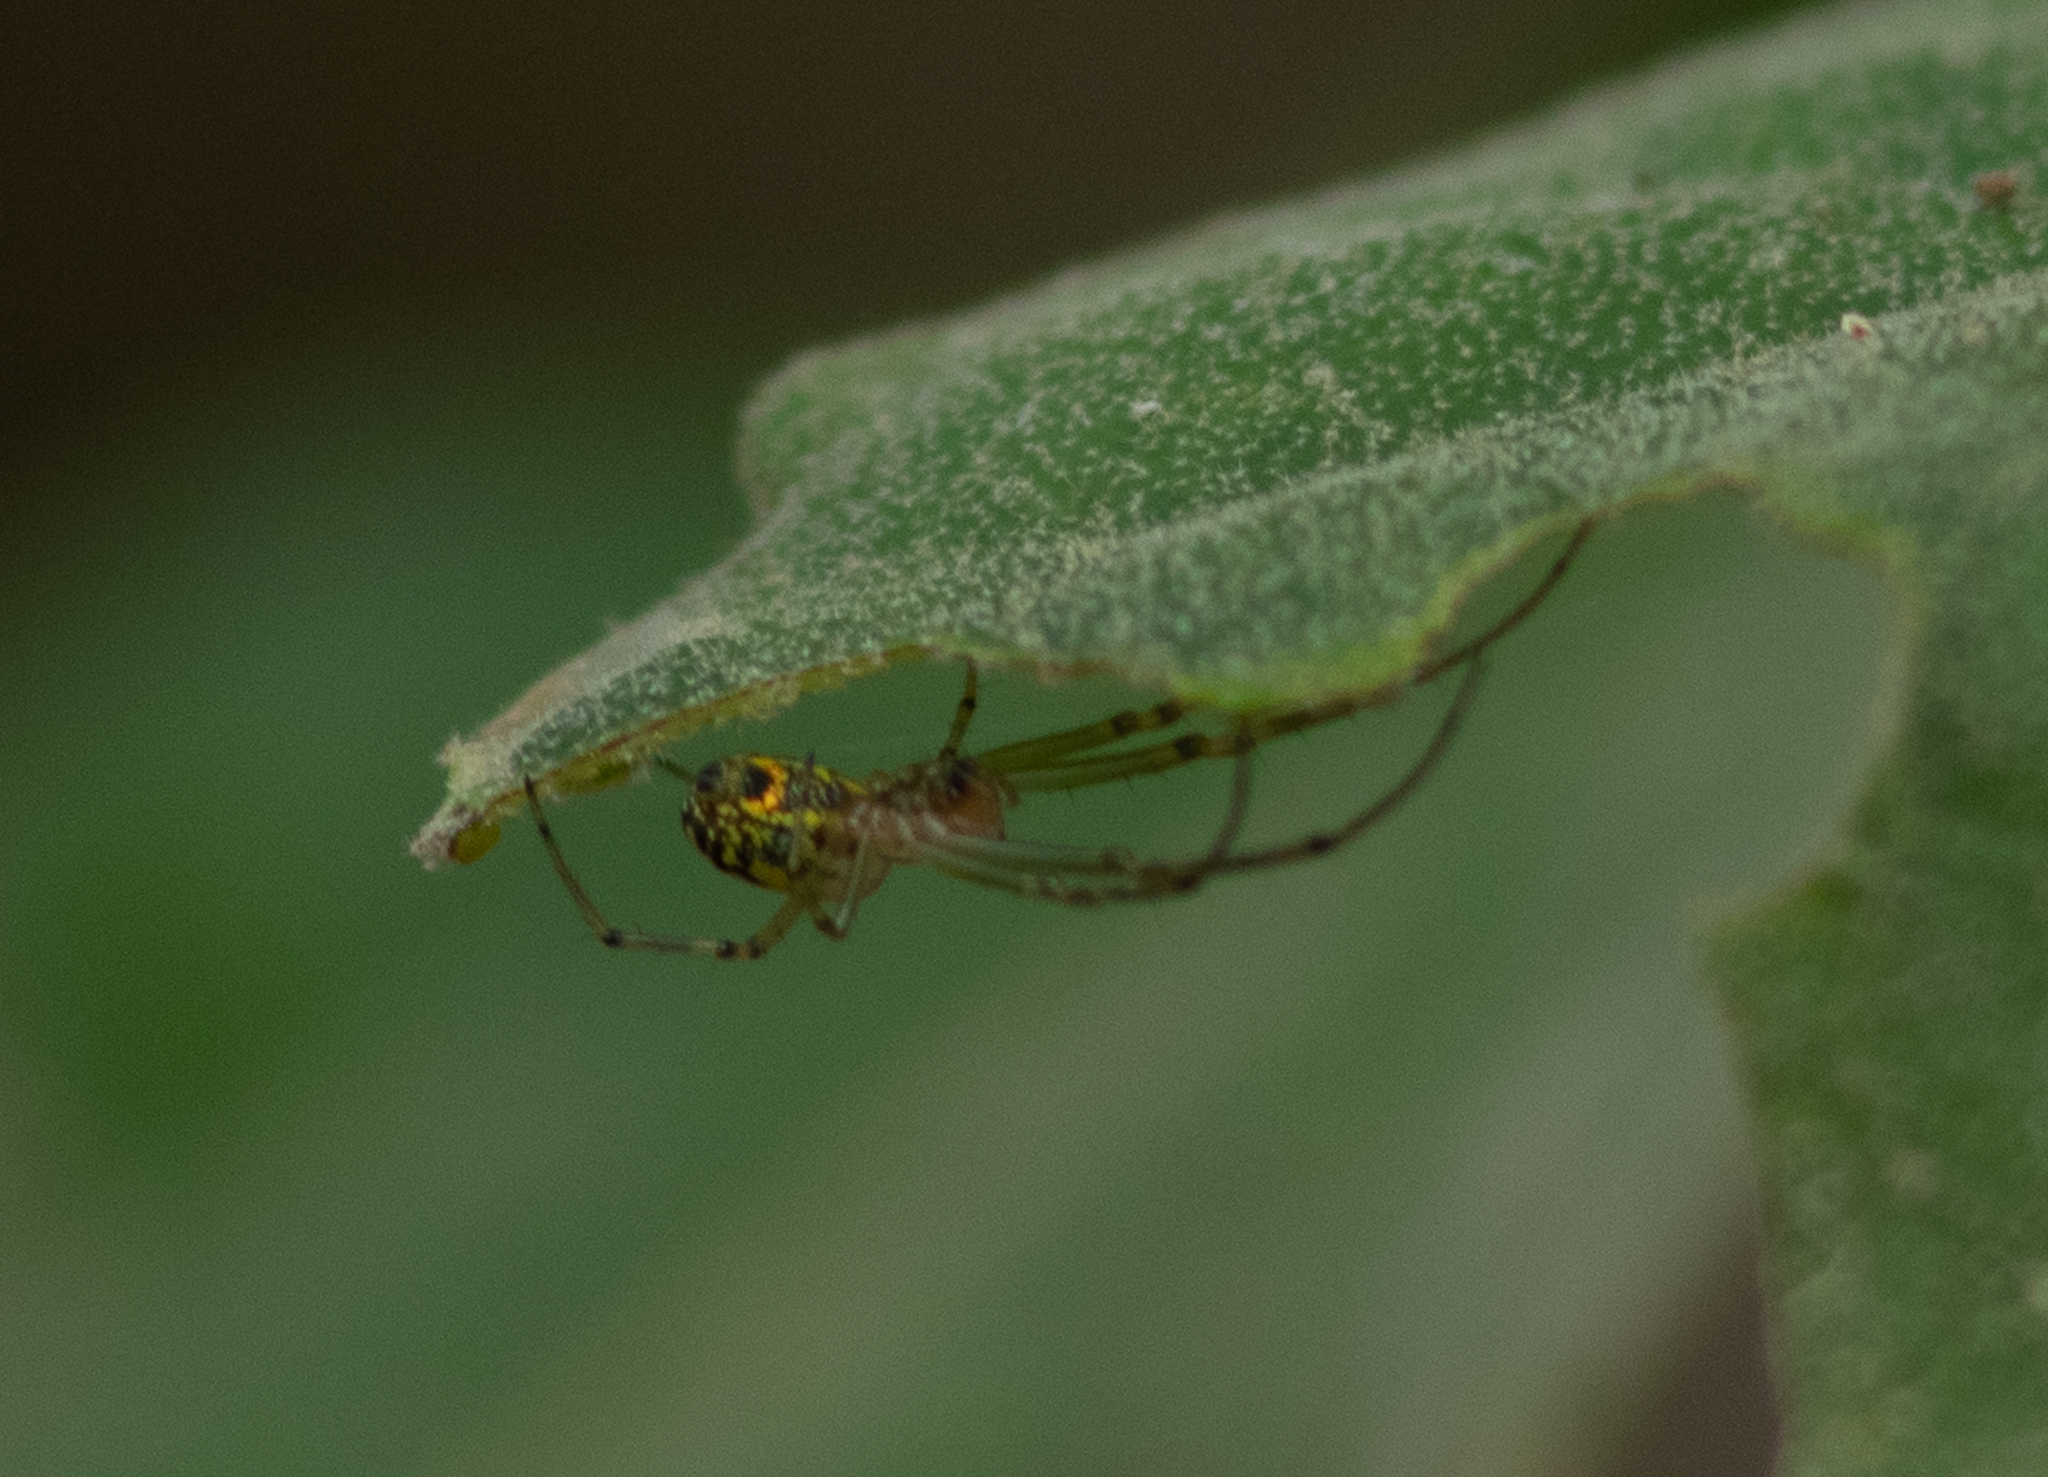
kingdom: Animalia
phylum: Arthropoda
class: Arachnida
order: Araneae
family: Tetragnathidae
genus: Leucauge
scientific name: Leucauge venusta
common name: Longjawed orb weavers
